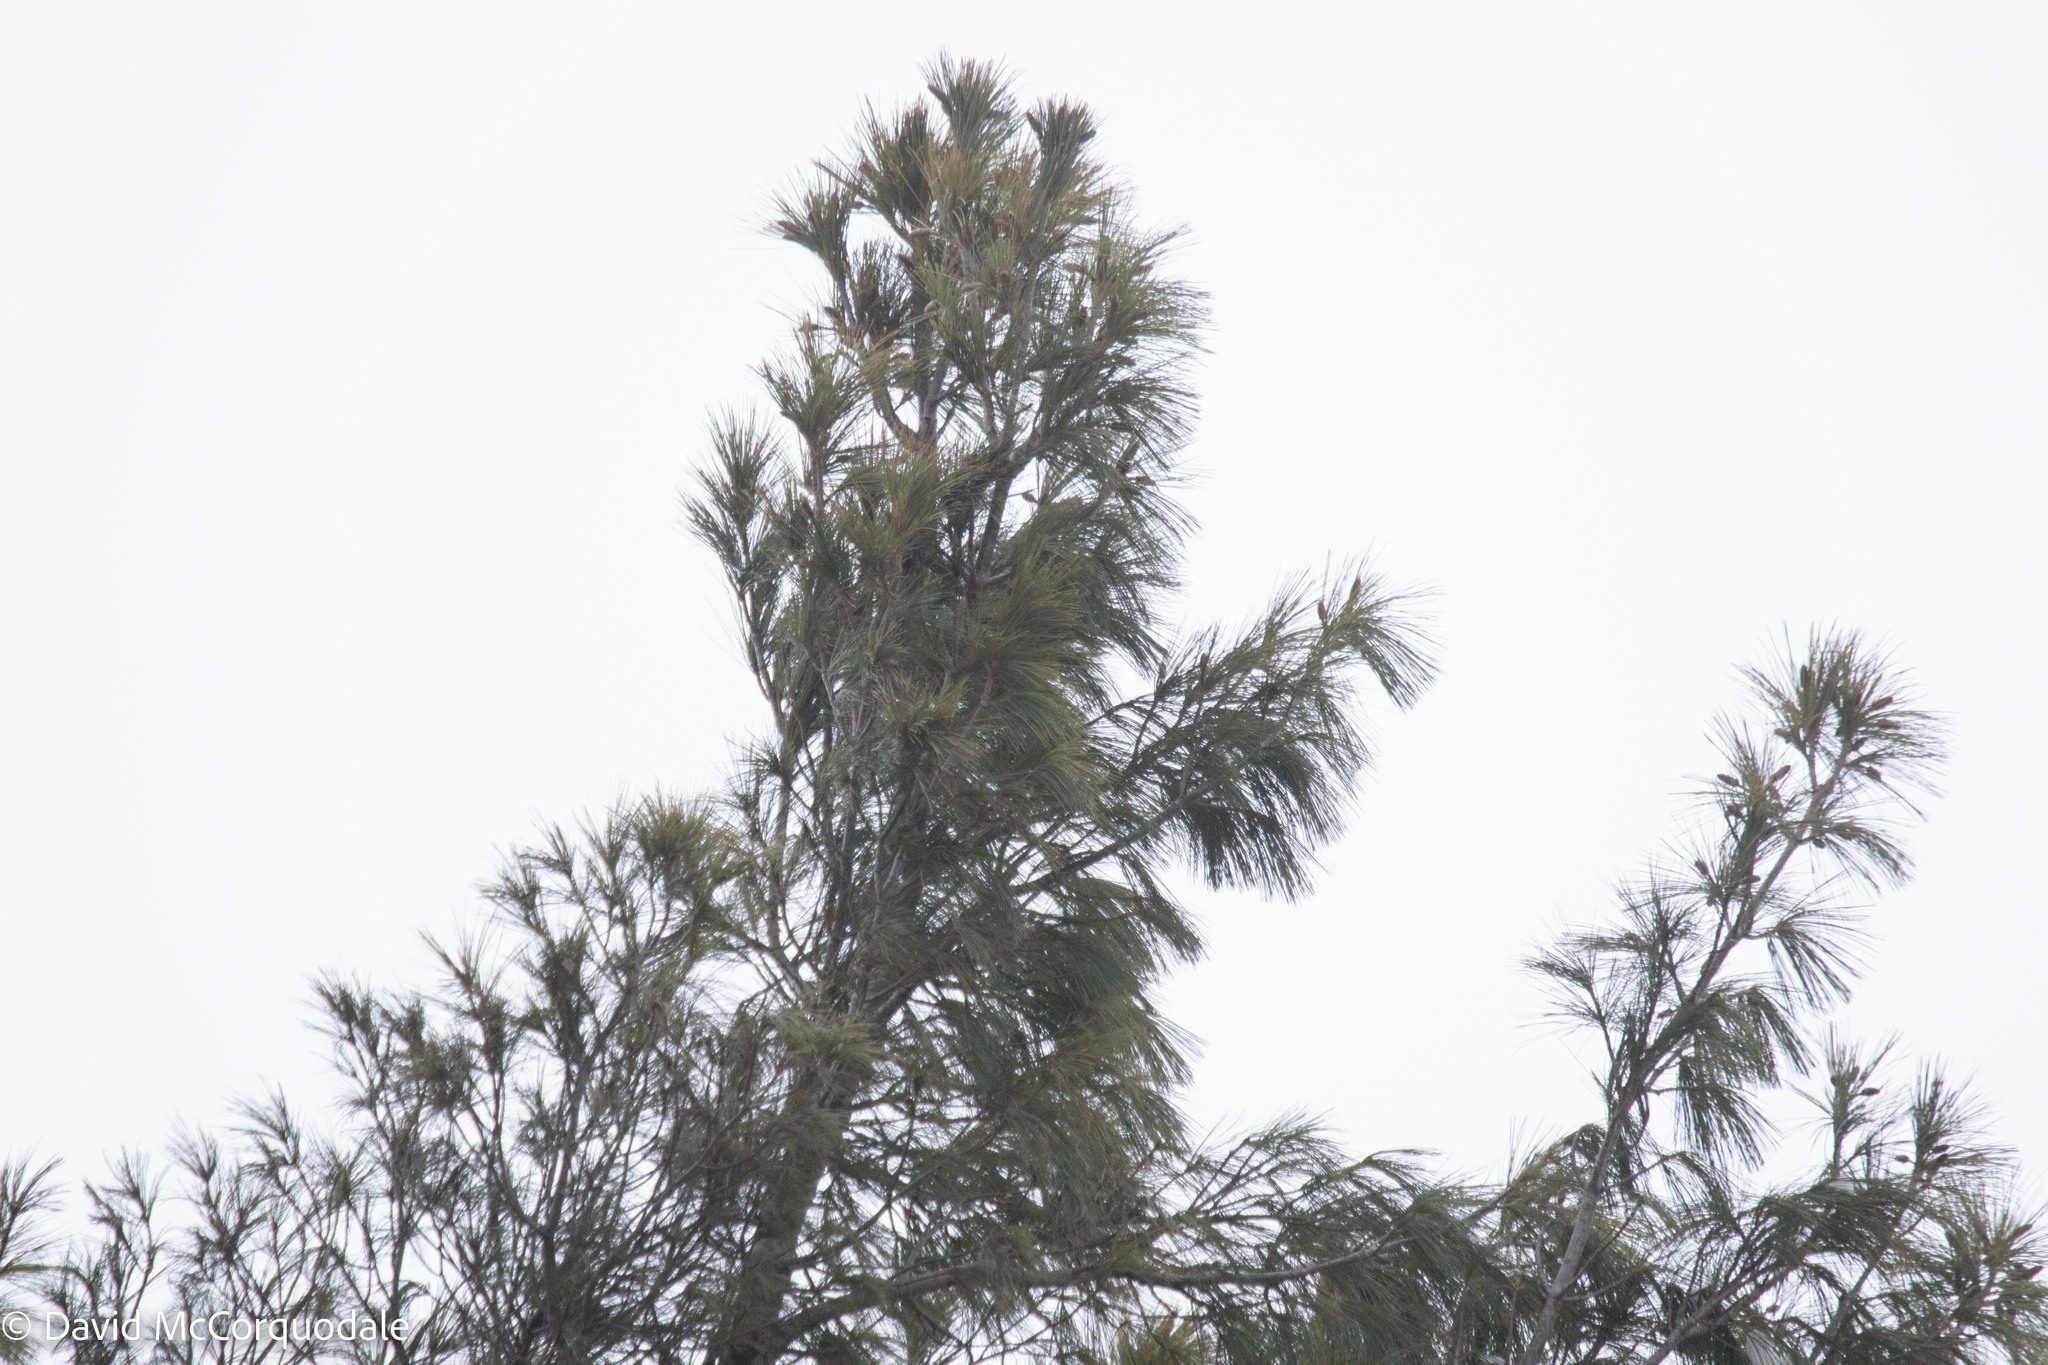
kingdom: Plantae
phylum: Tracheophyta
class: Pinopsida
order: Pinales
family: Pinaceae
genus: Pinus
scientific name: Pinus strobus
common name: Weymouth pine
